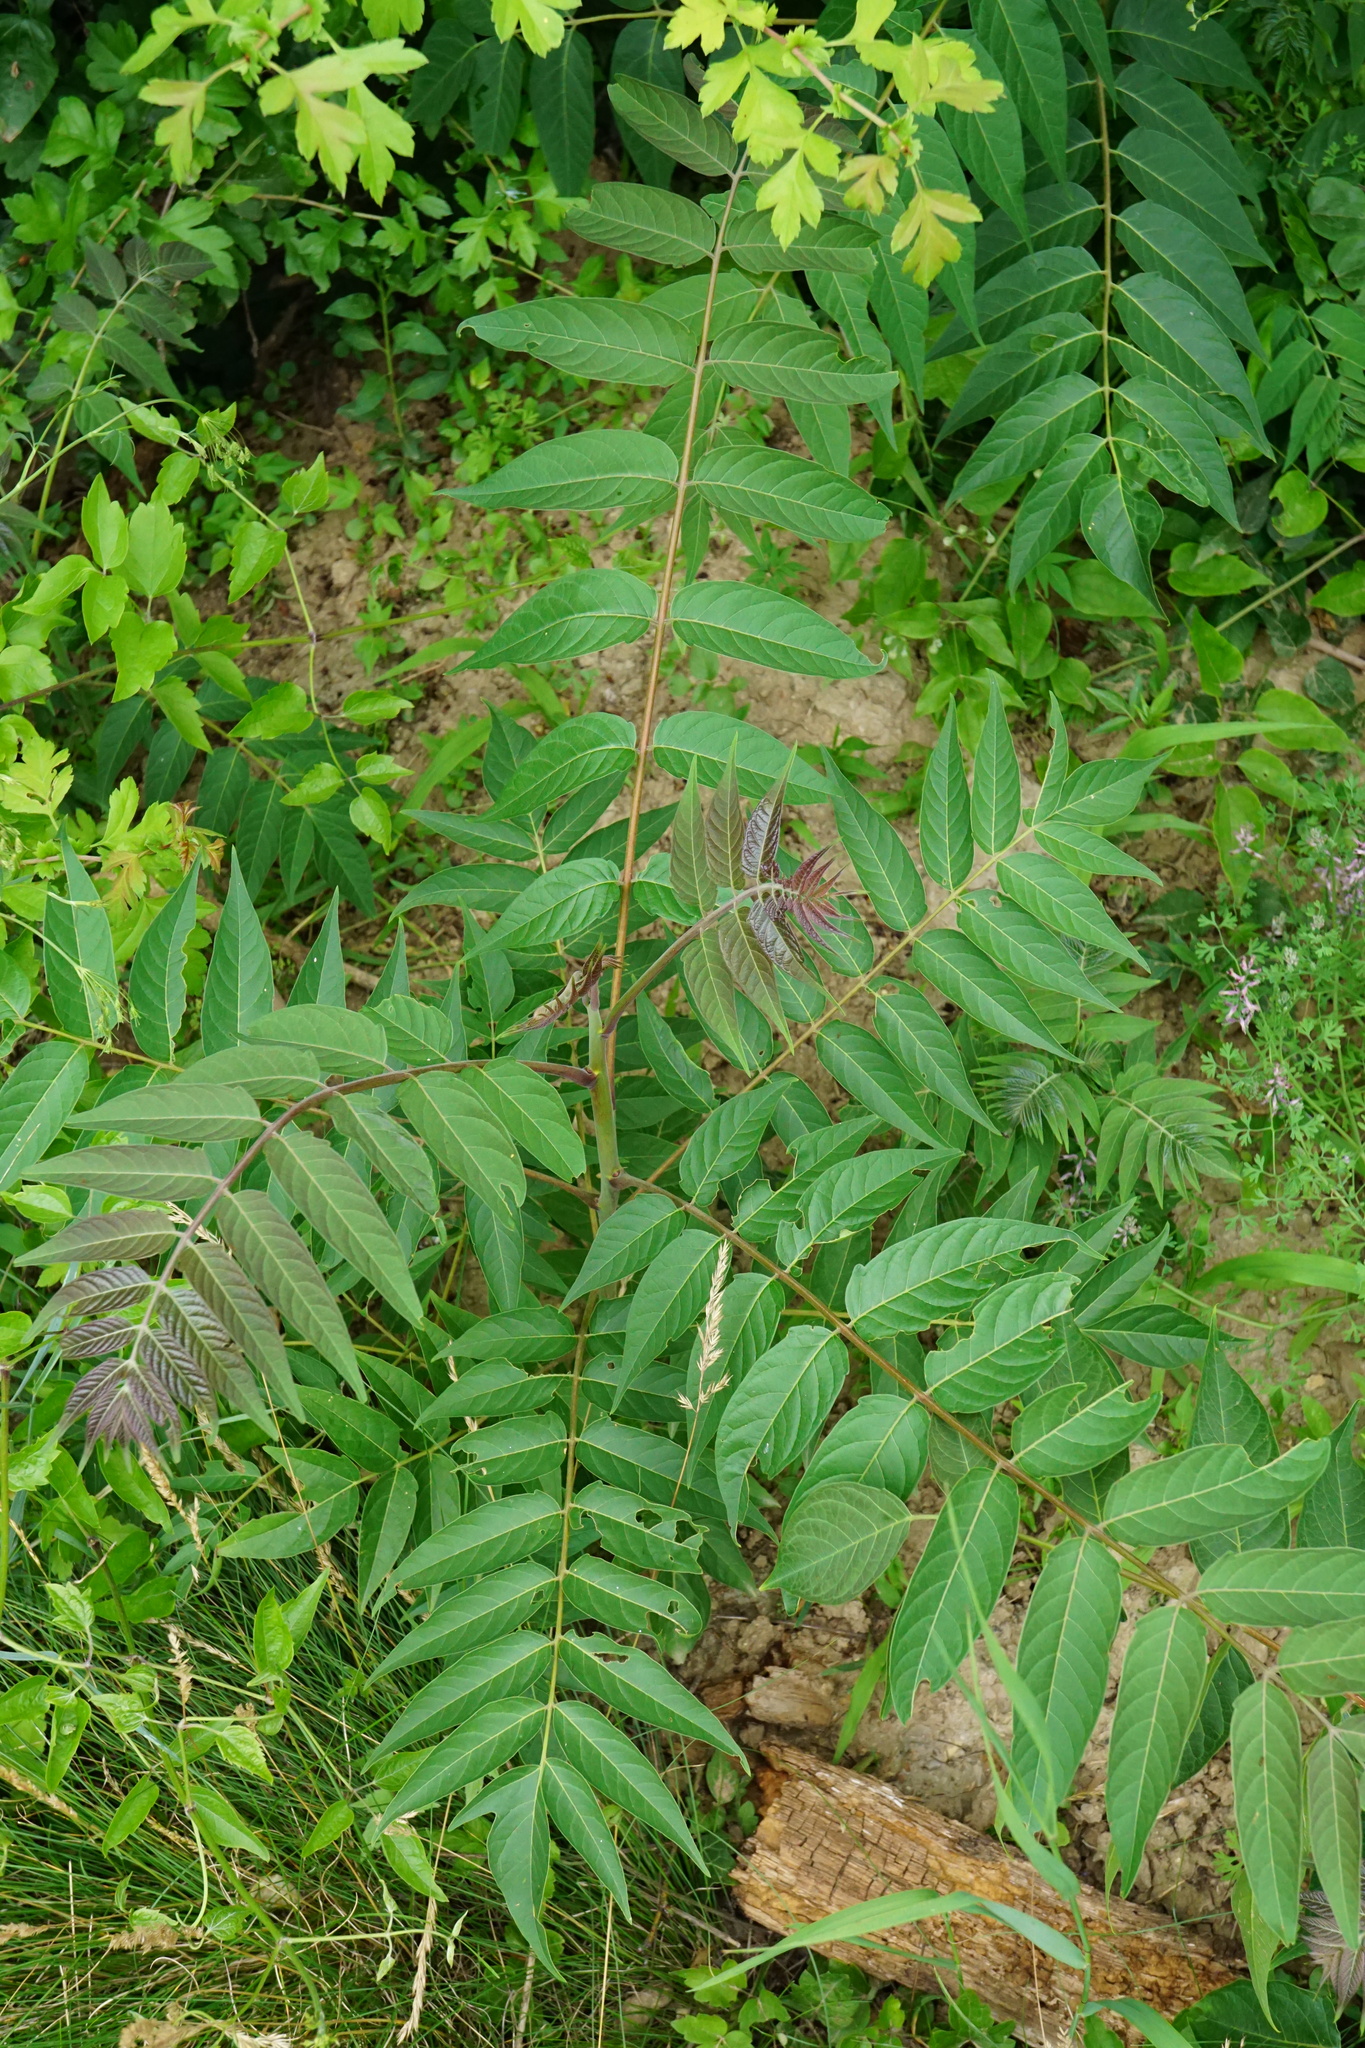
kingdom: Plantae
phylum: Tracheophyta
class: Magnoliopsida
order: Sapindales
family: Simaroubaceae
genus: Ailanthus
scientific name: Ailanthus altissima
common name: Tree-of-heaven
